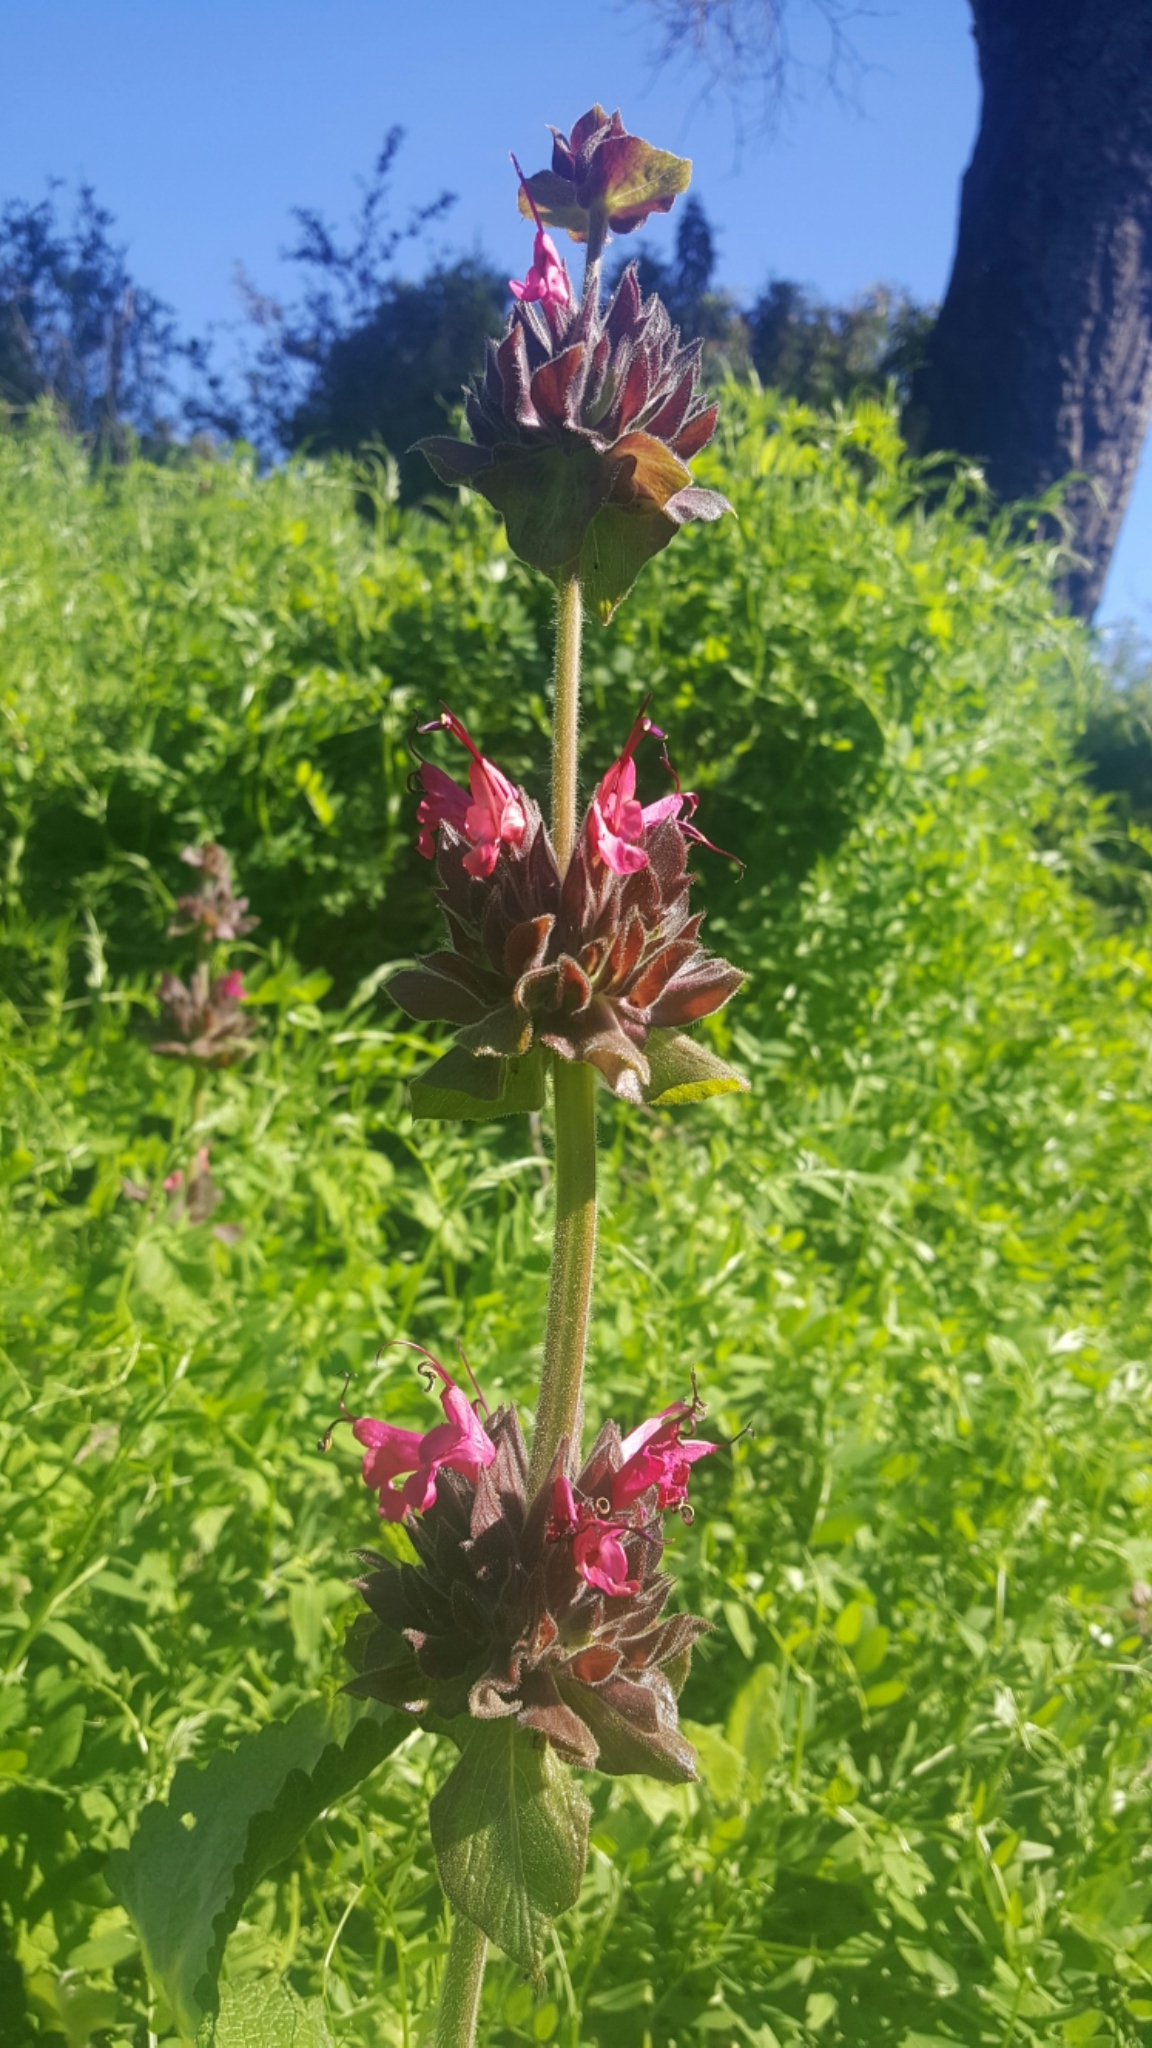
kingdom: Plantae
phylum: Tracheophyta
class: Magnoliopsida
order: Lamiales
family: Lamiaceae
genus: Salvia
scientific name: Salvia spathacea
